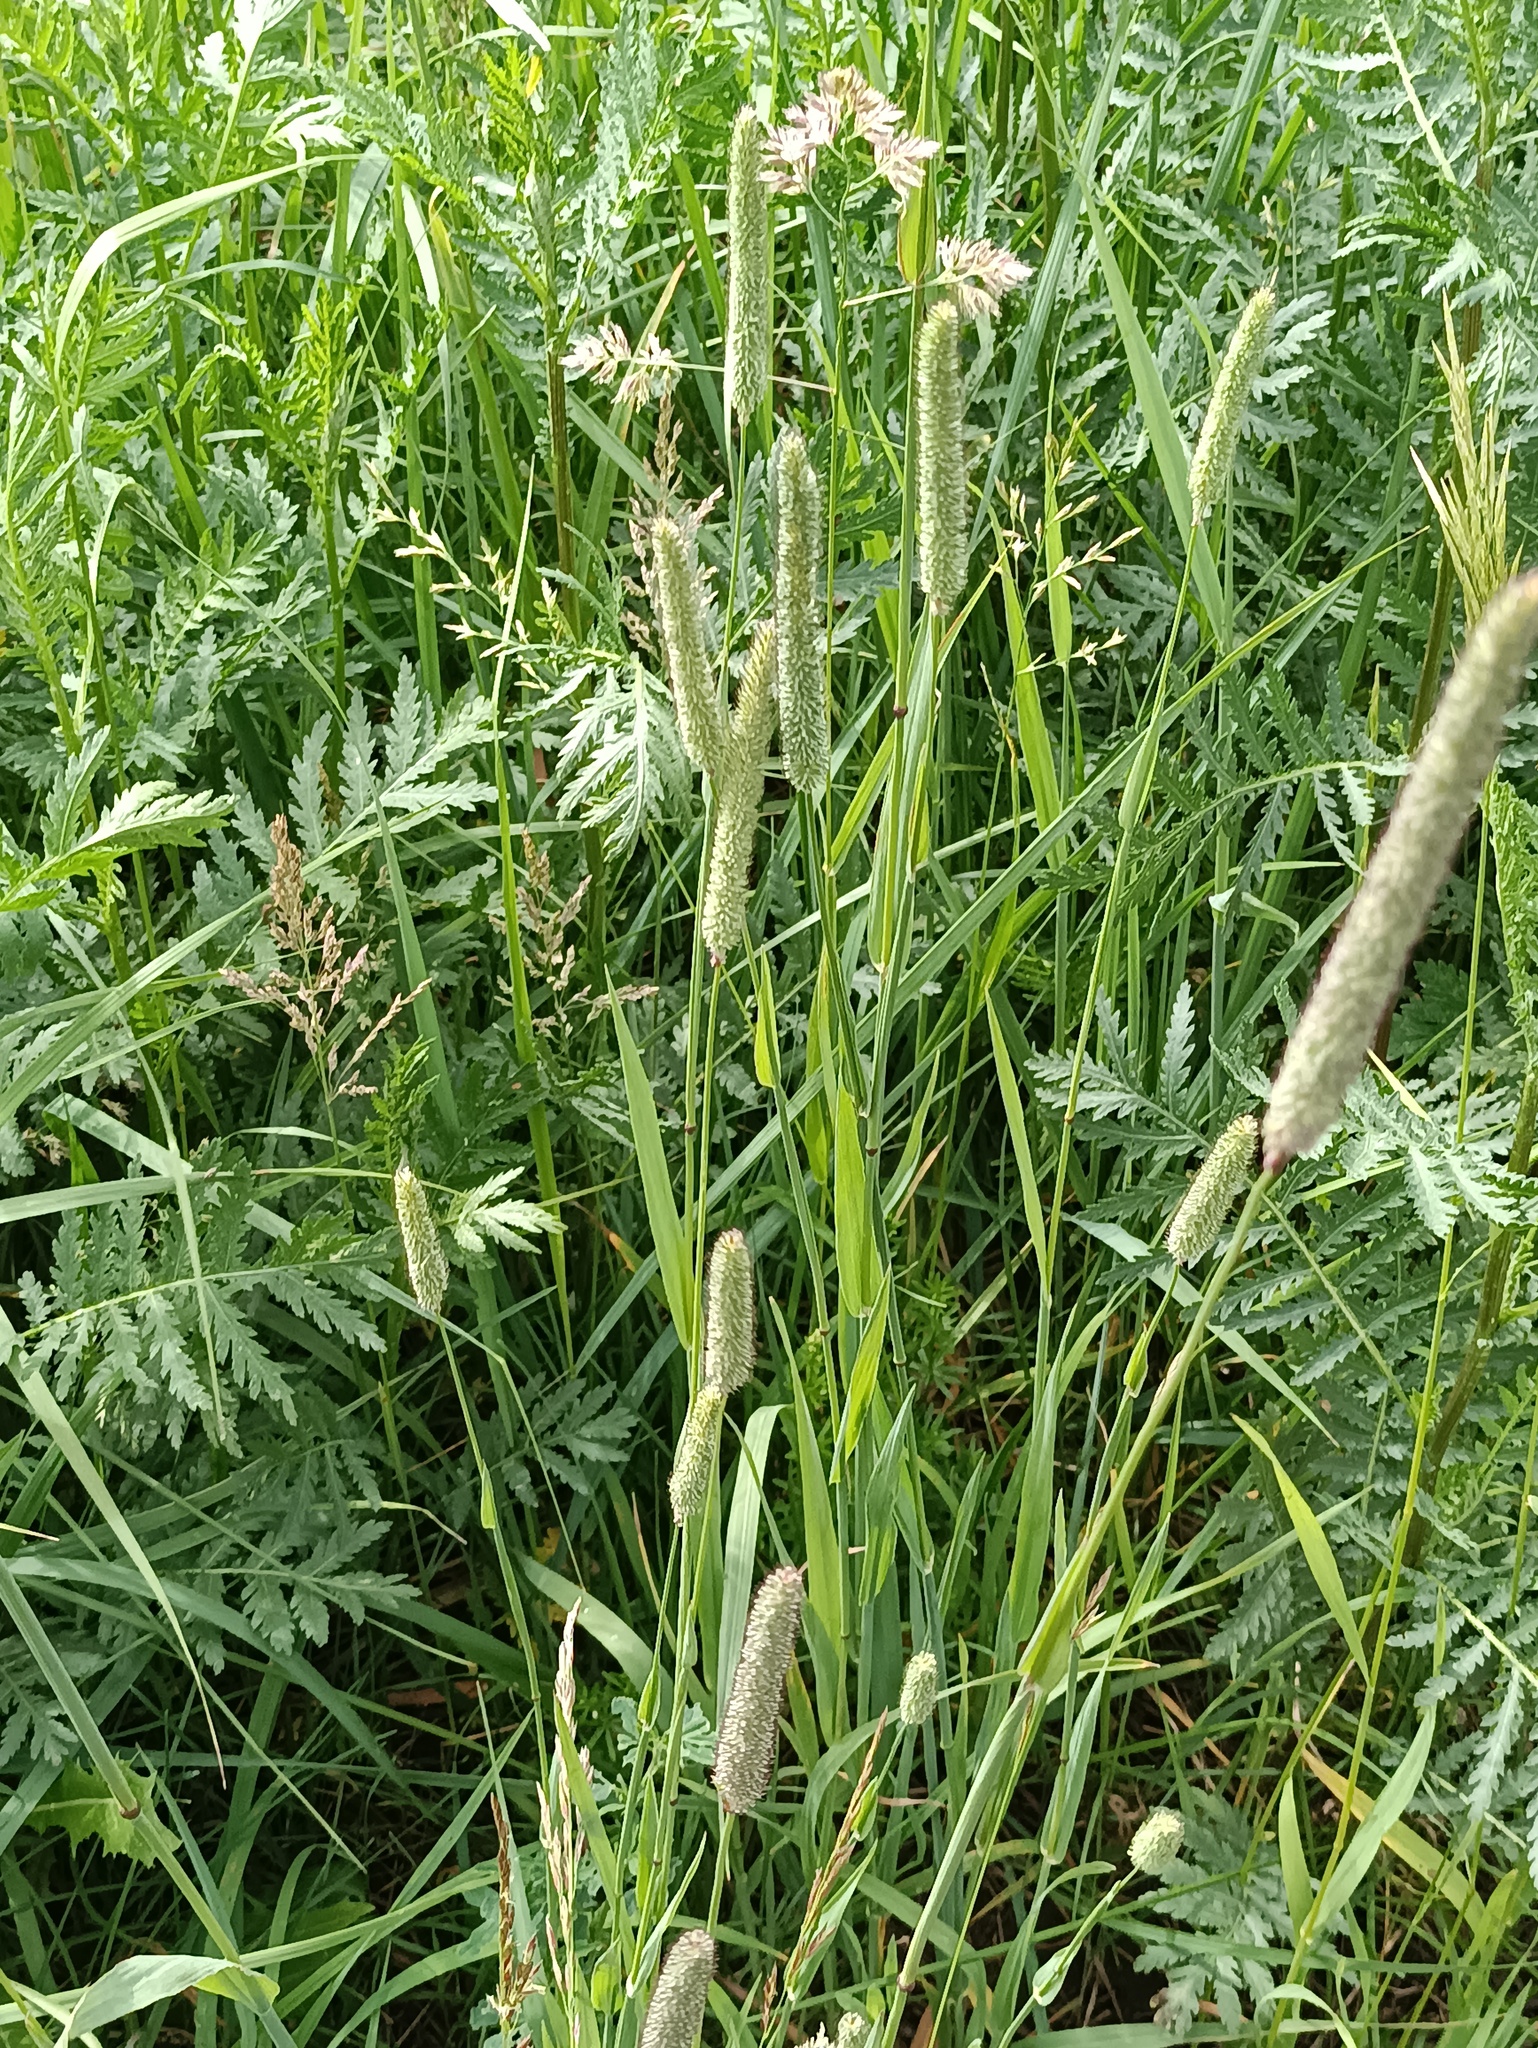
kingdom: Plantae
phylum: Tracheophyta
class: Liliopsida
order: Poales
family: Poaceae
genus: Phleum
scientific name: Phleum pratense
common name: Timothy grass
